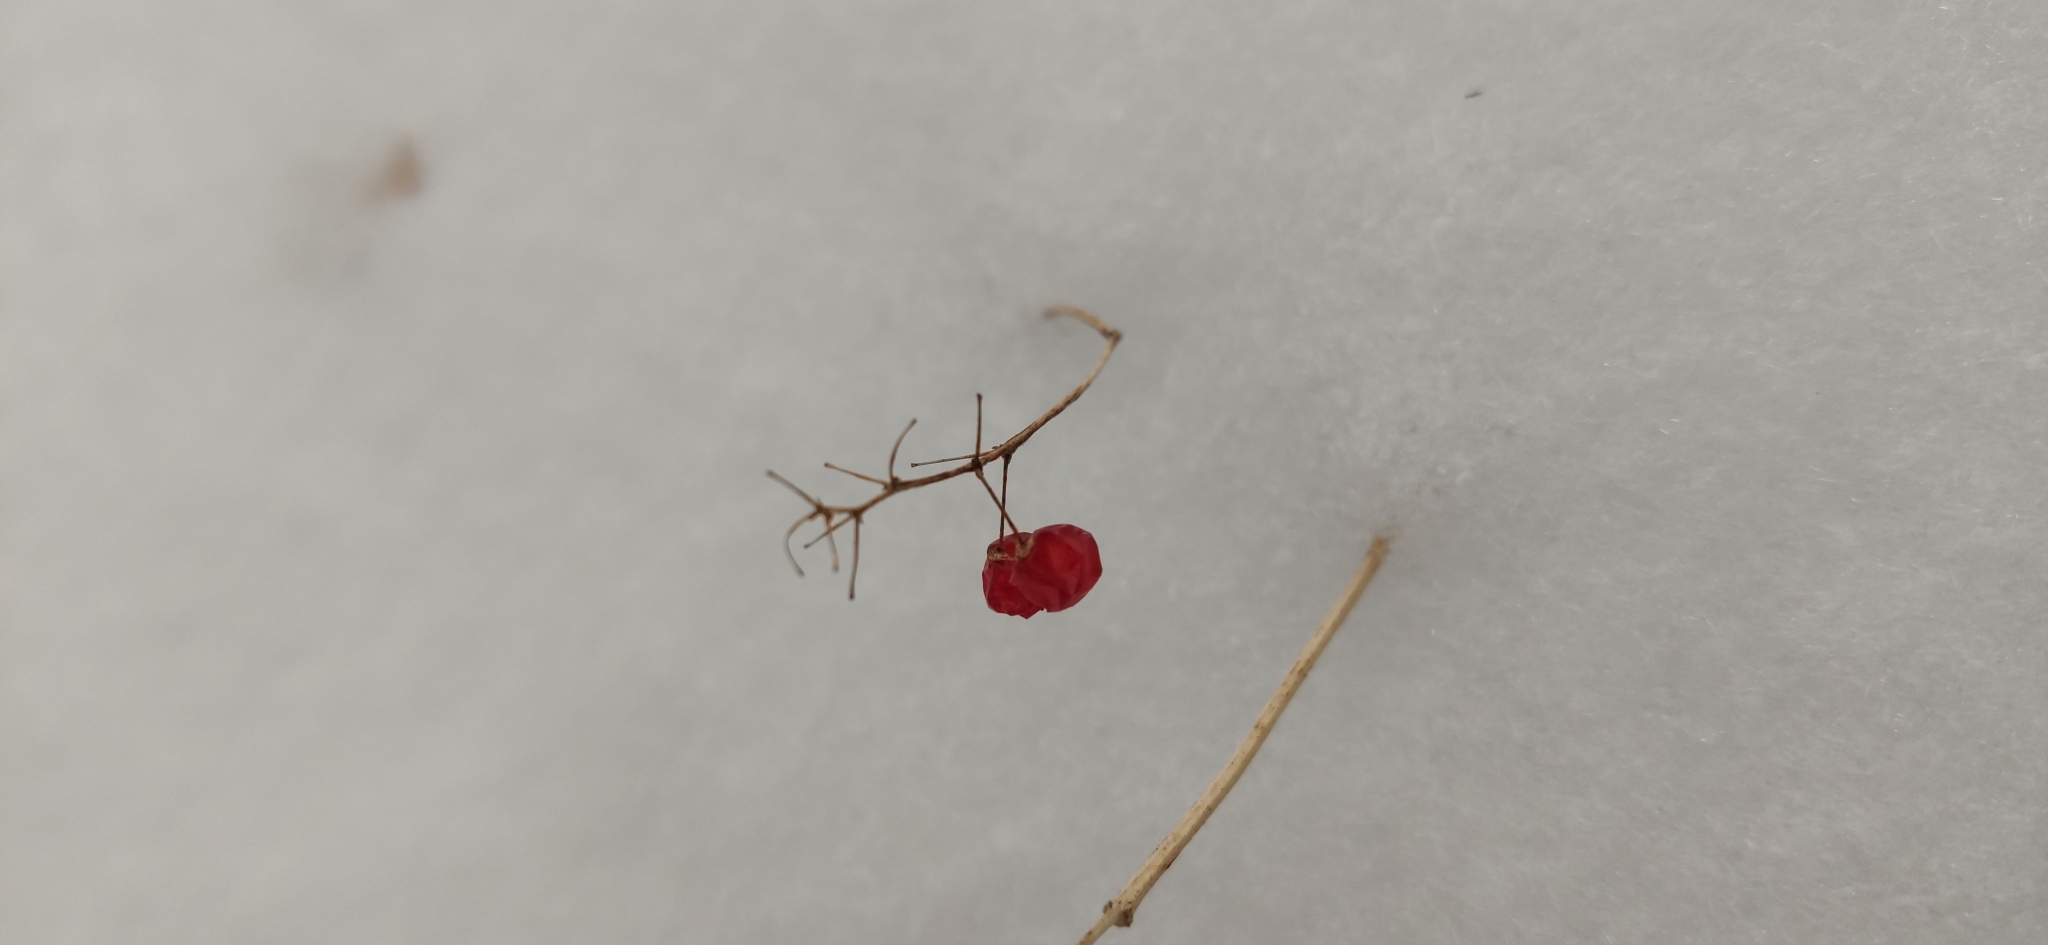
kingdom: Plantae
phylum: Tracheophyta
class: Liliopsida
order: Asparagales
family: Asparagaceae
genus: Maianthemum
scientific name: Maianthemum bifolium
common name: May lily
